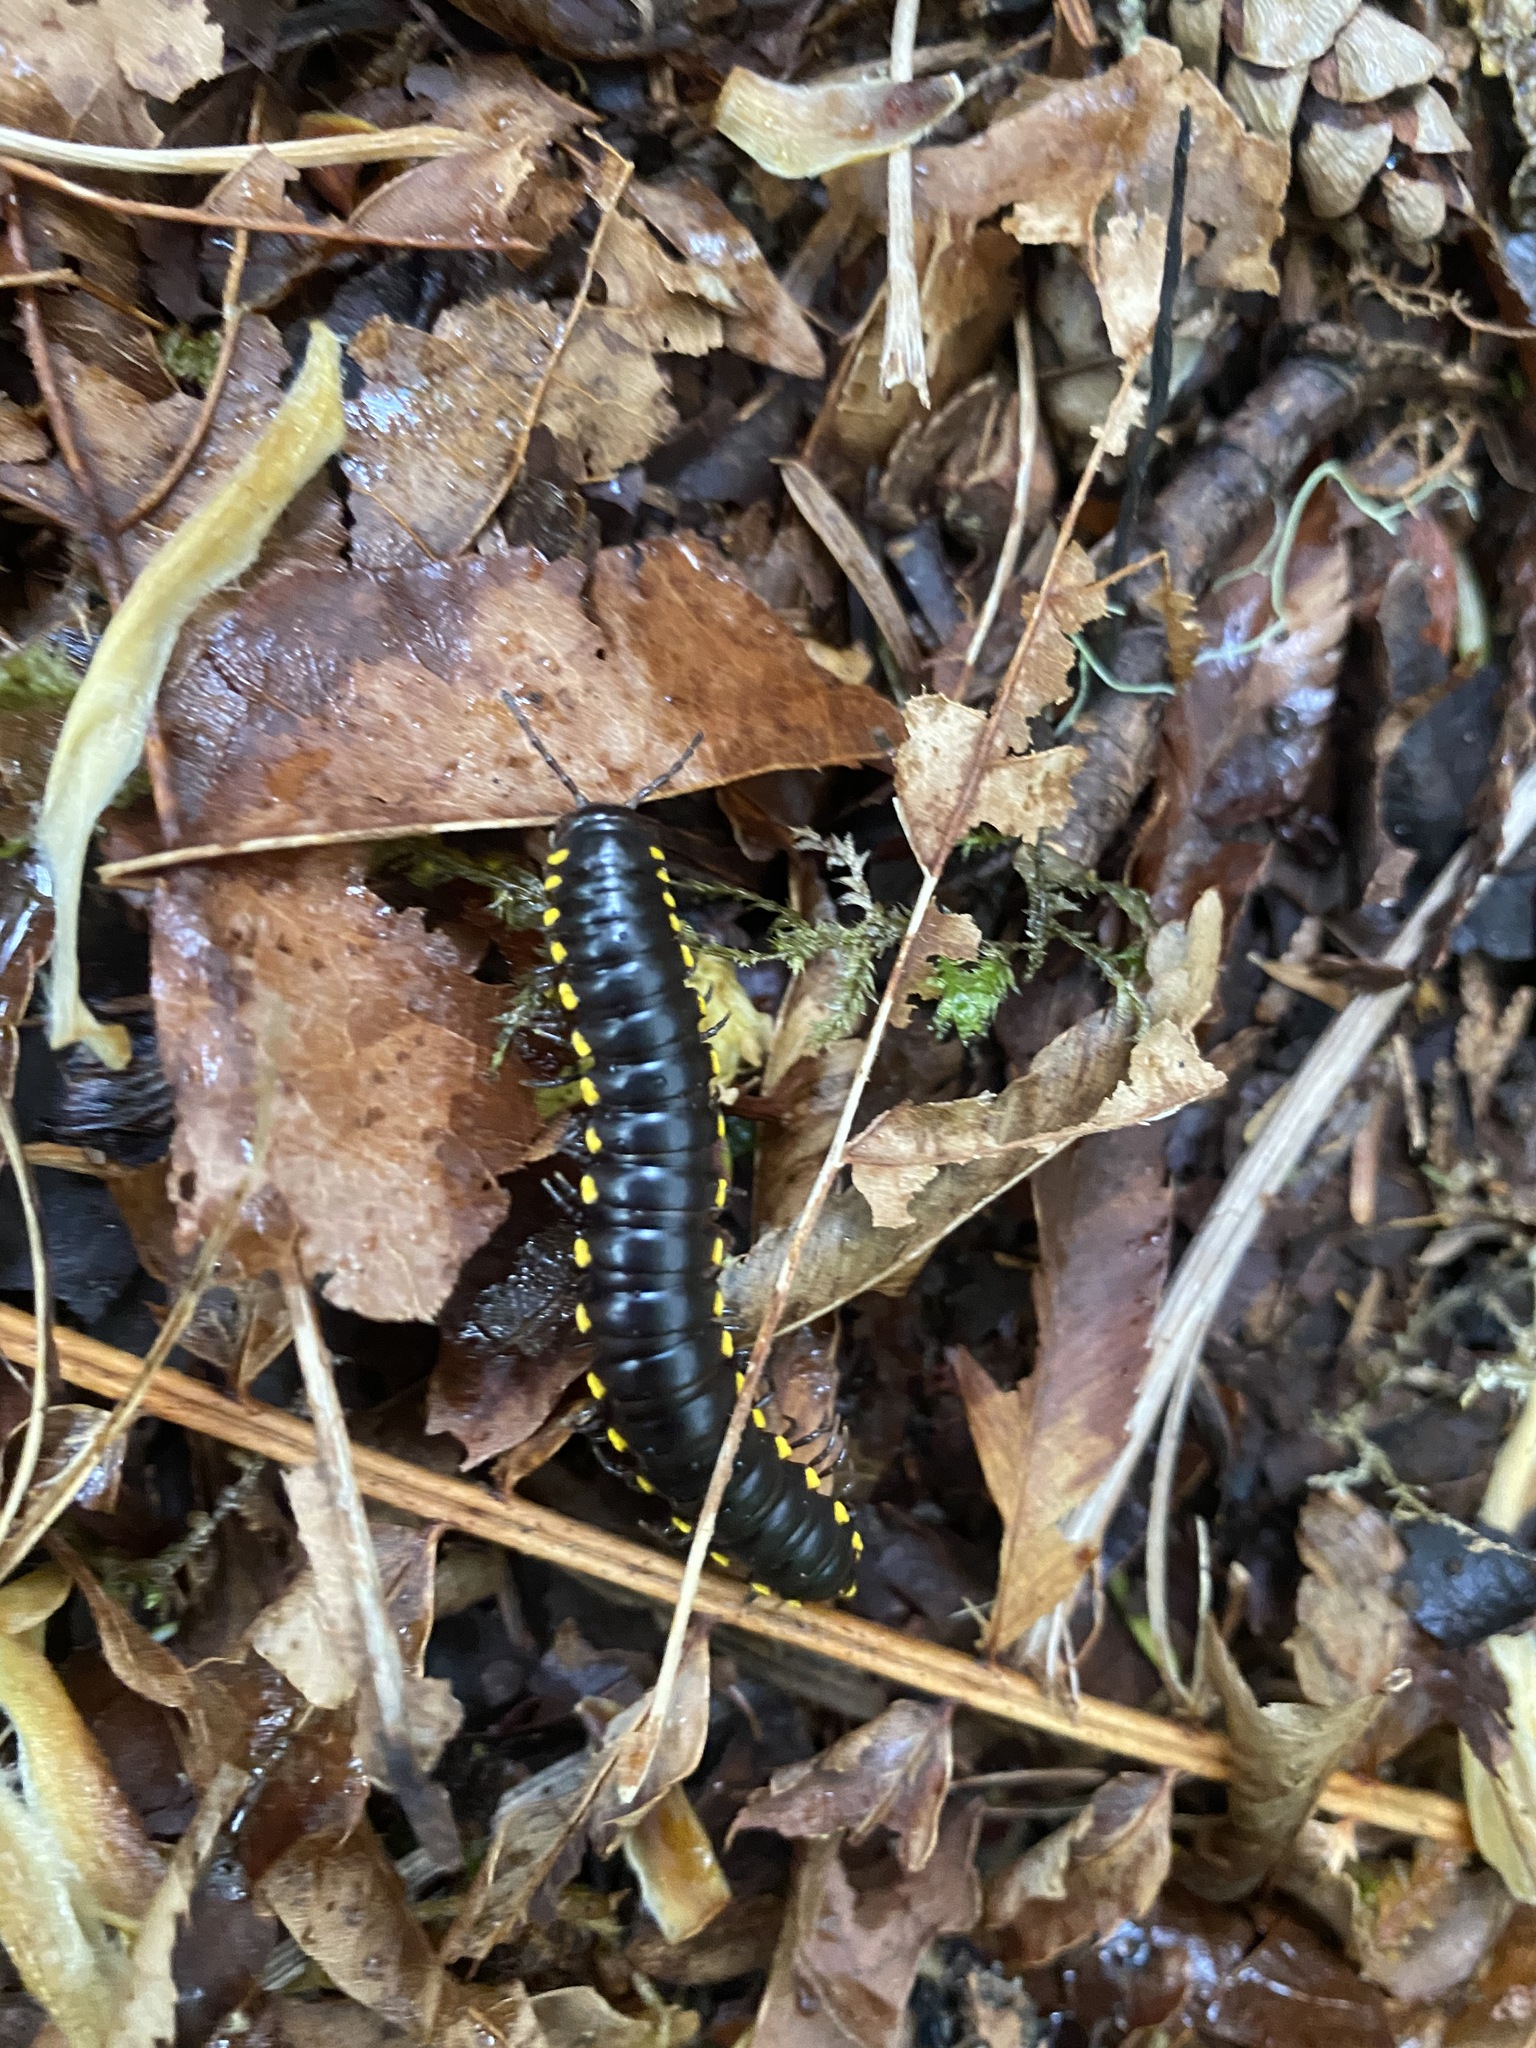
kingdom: Animalia
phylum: Arthropoda
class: Diplopoda
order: Polydesmida
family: Xystodesmidae
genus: Harpaphe
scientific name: Harpaphe haydeniana
